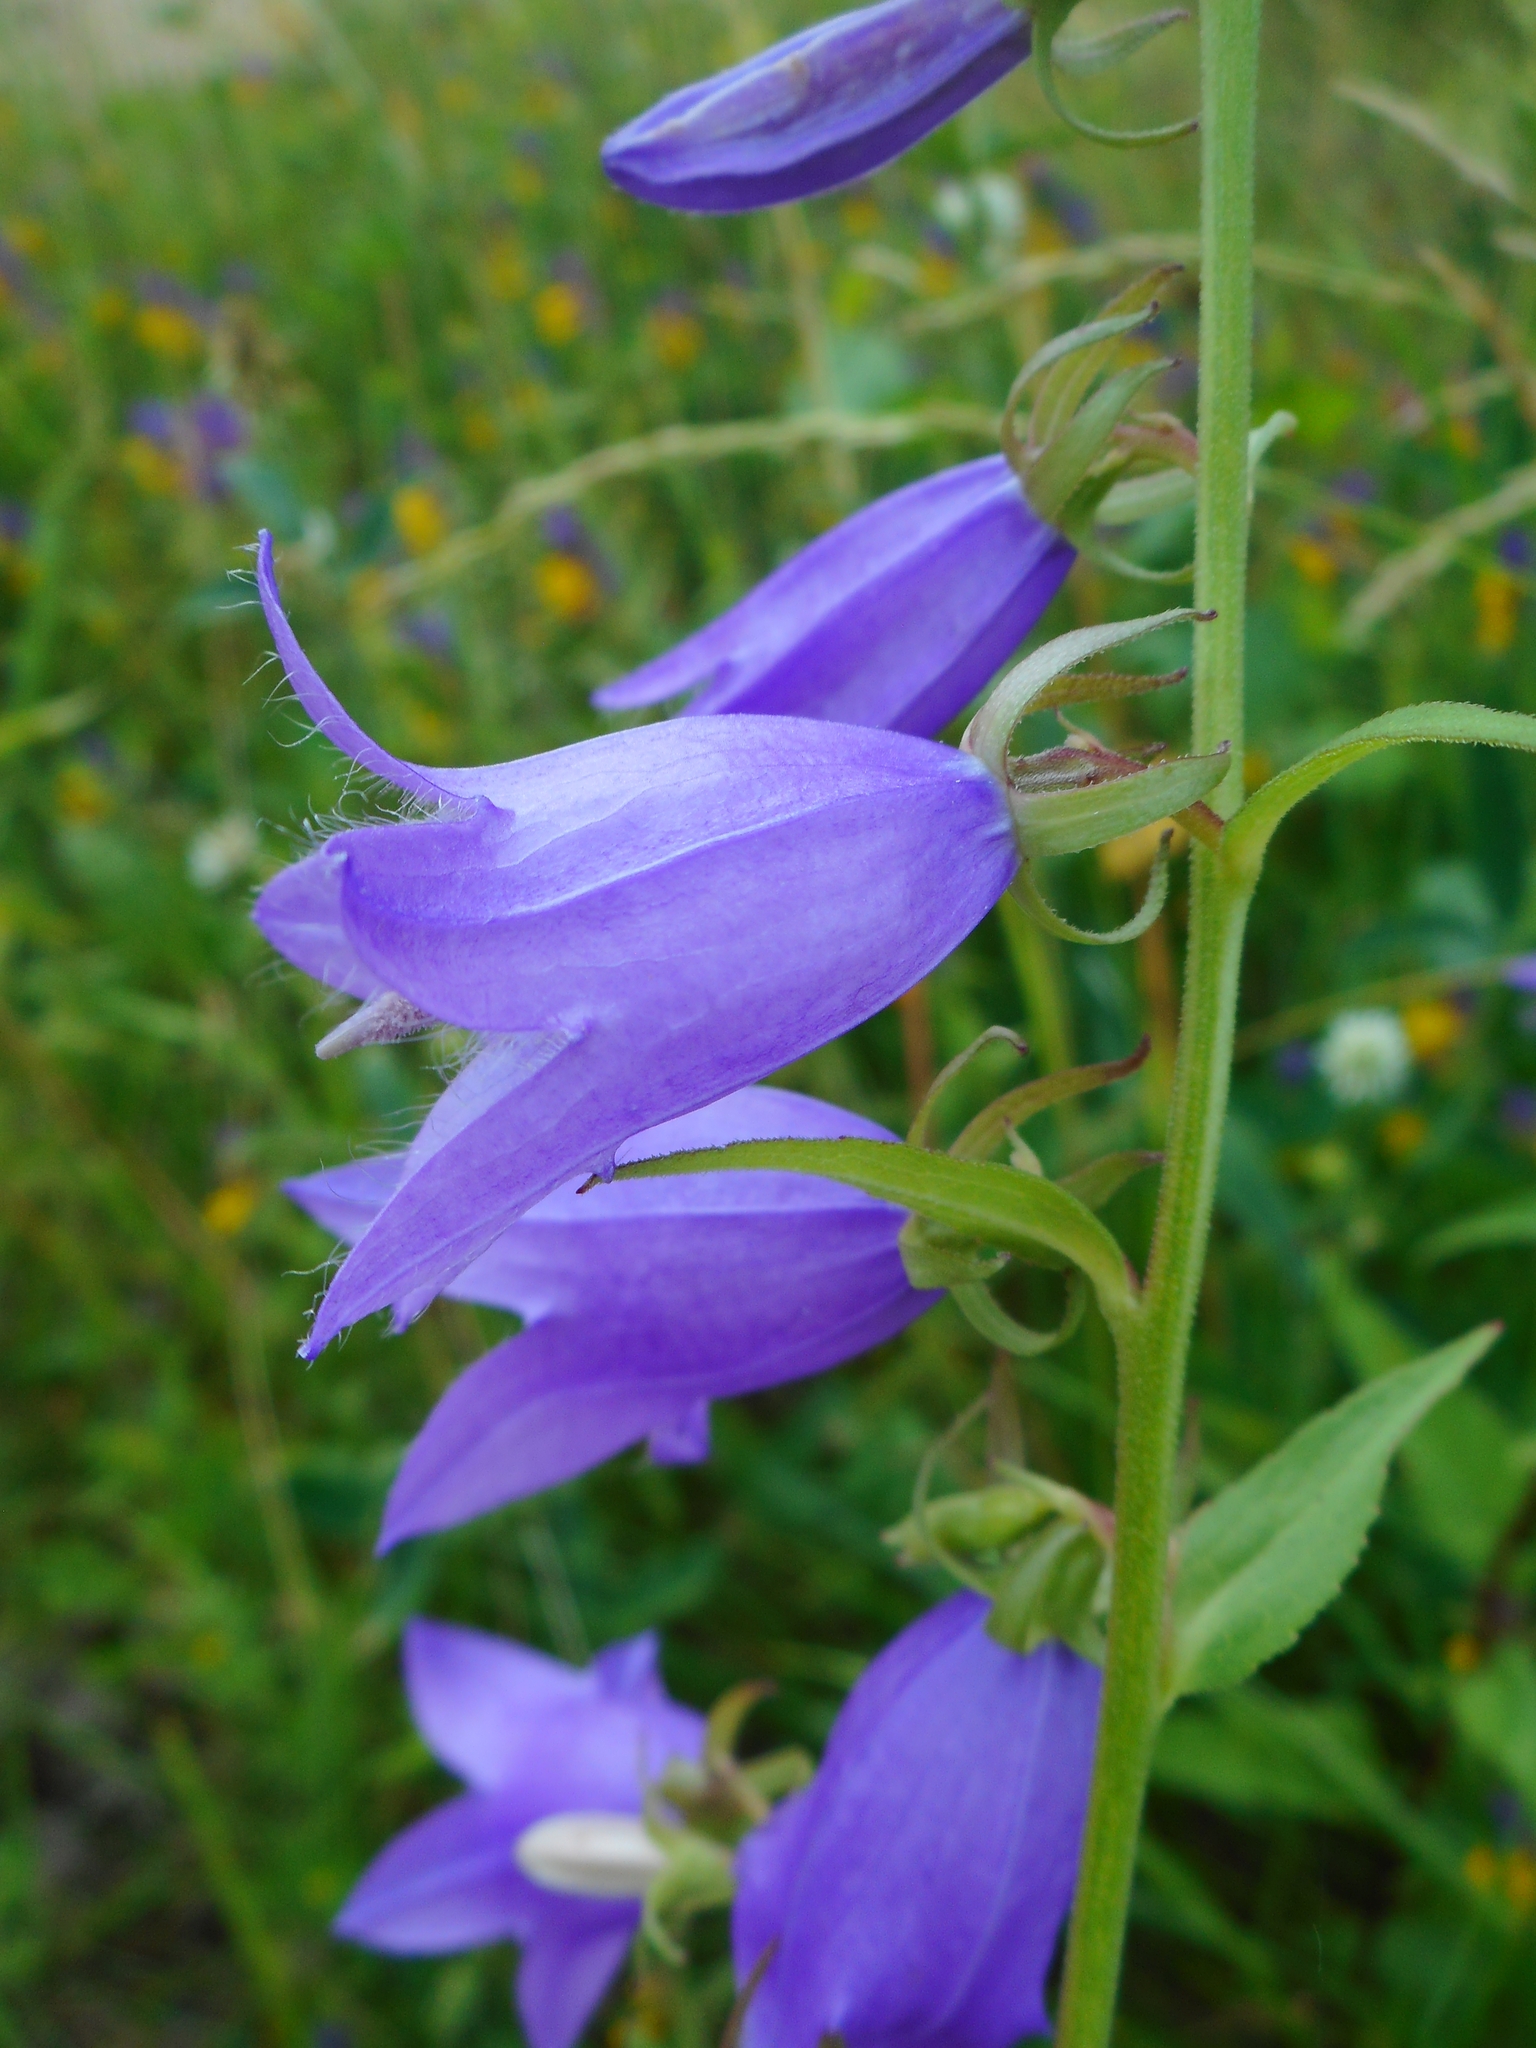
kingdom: Plantae
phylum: Tracheophyta
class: Magnoliopsida
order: Asterales
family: Campanulaceae
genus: Campanula
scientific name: Campanula rapunculoides
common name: Creeping bellflower
